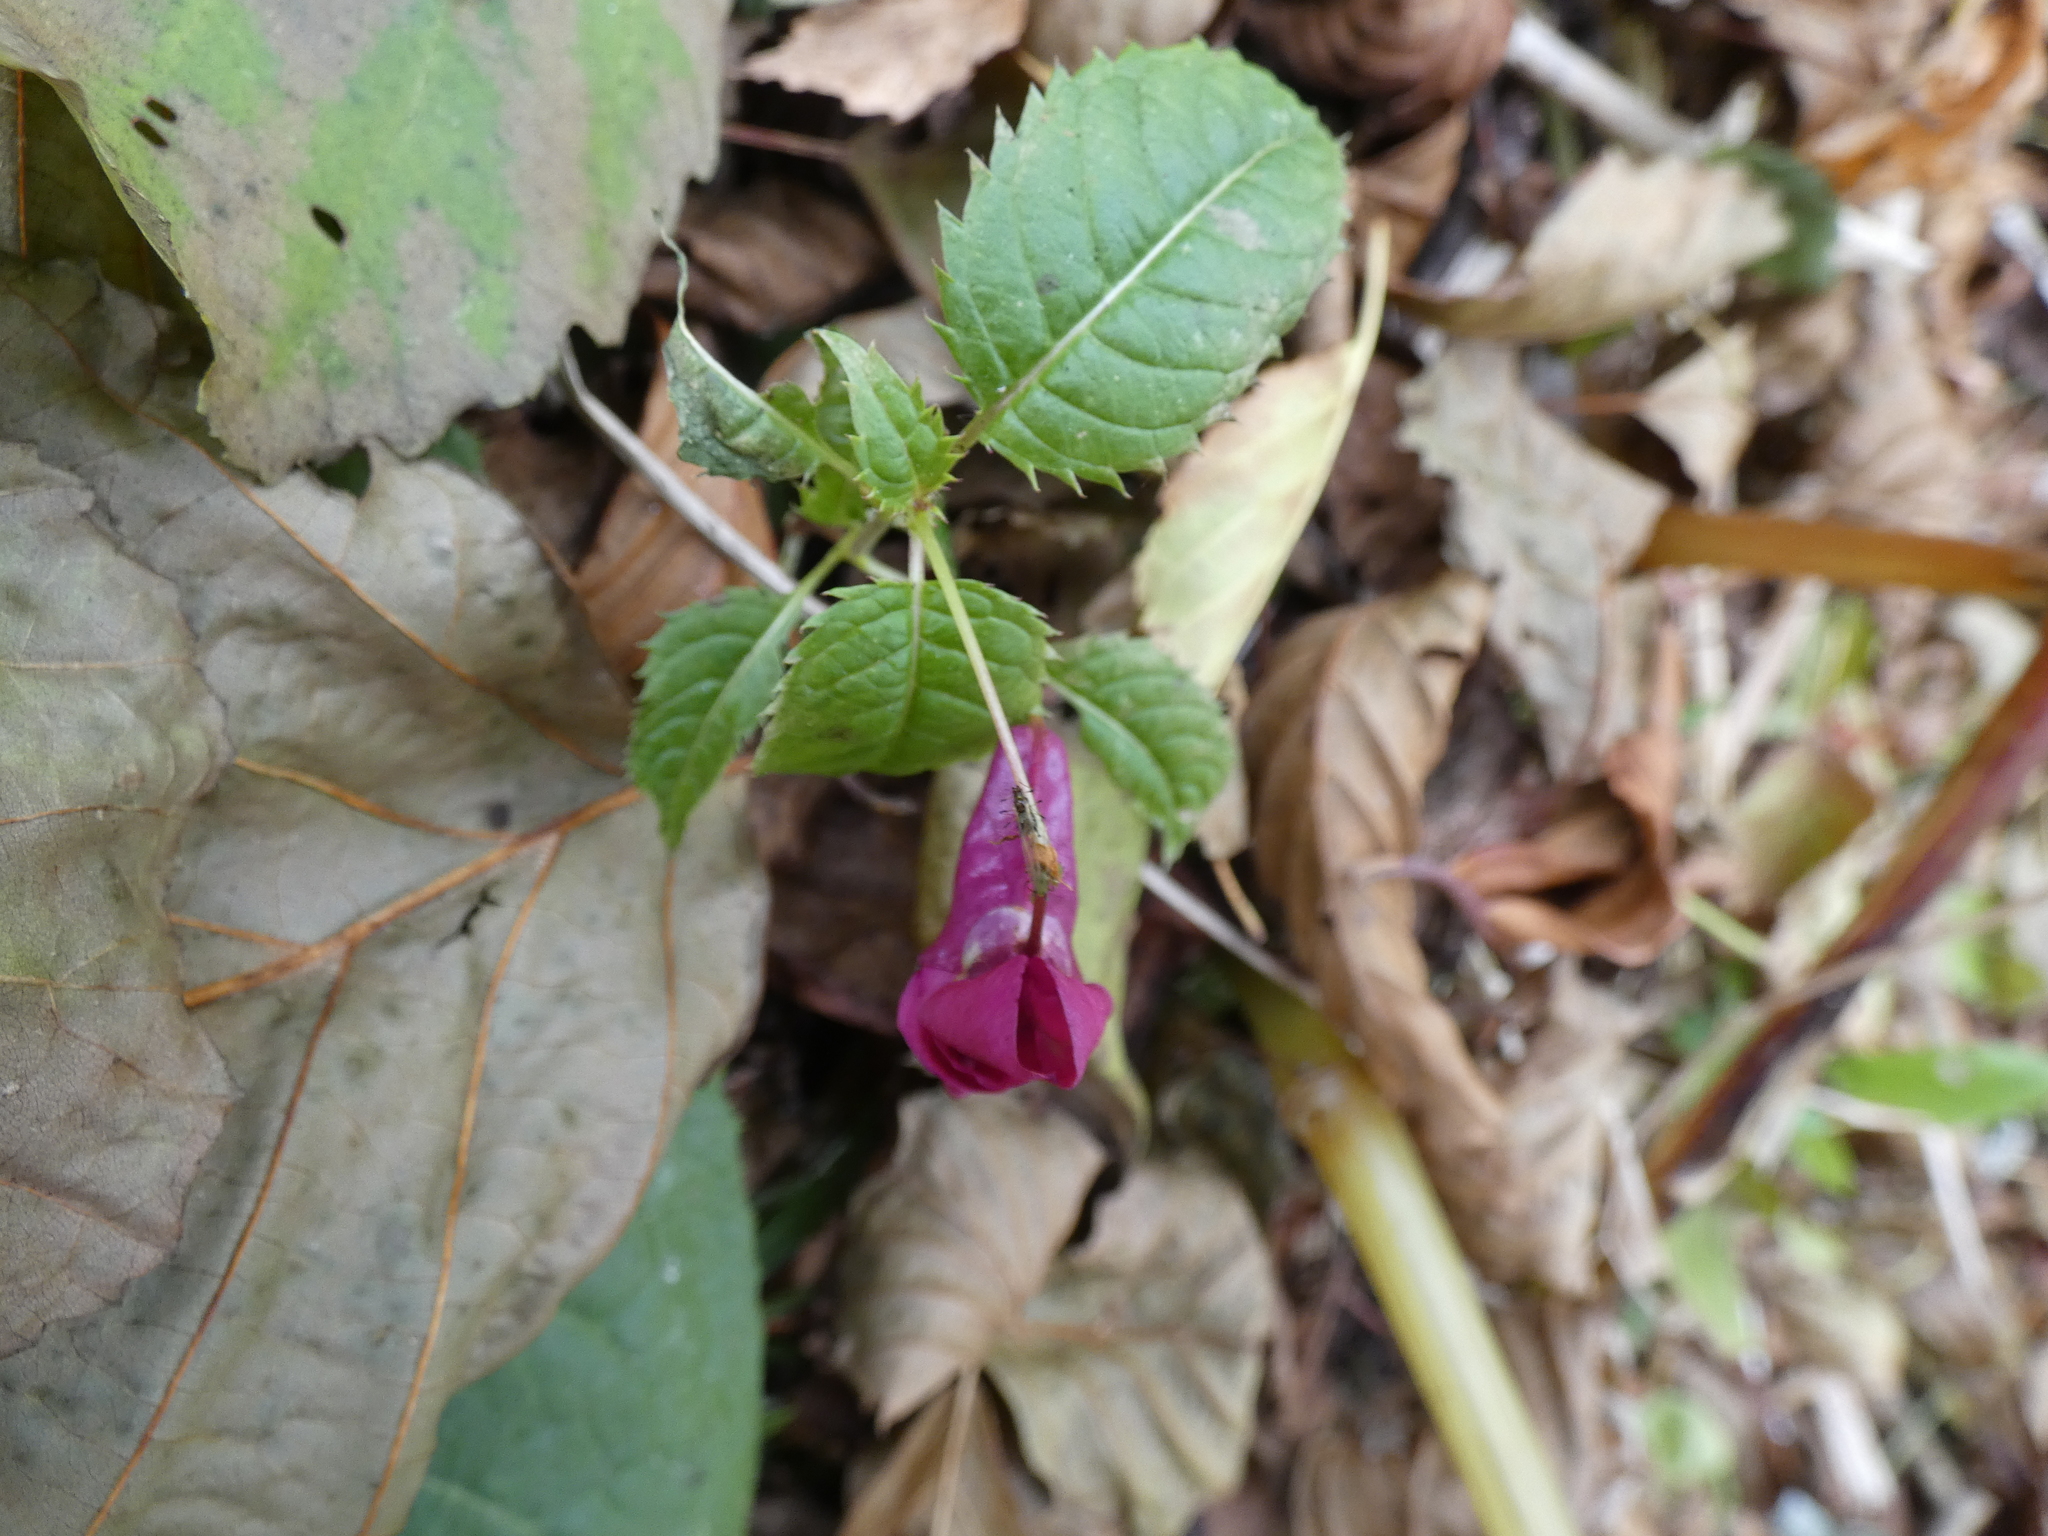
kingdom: Plantae
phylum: Tracheophyta
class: Magnoliopsida
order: Ericales
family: Balsaminaceae
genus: Impatiens
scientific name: Impatiens glandulifera
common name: Himalayan balsam
